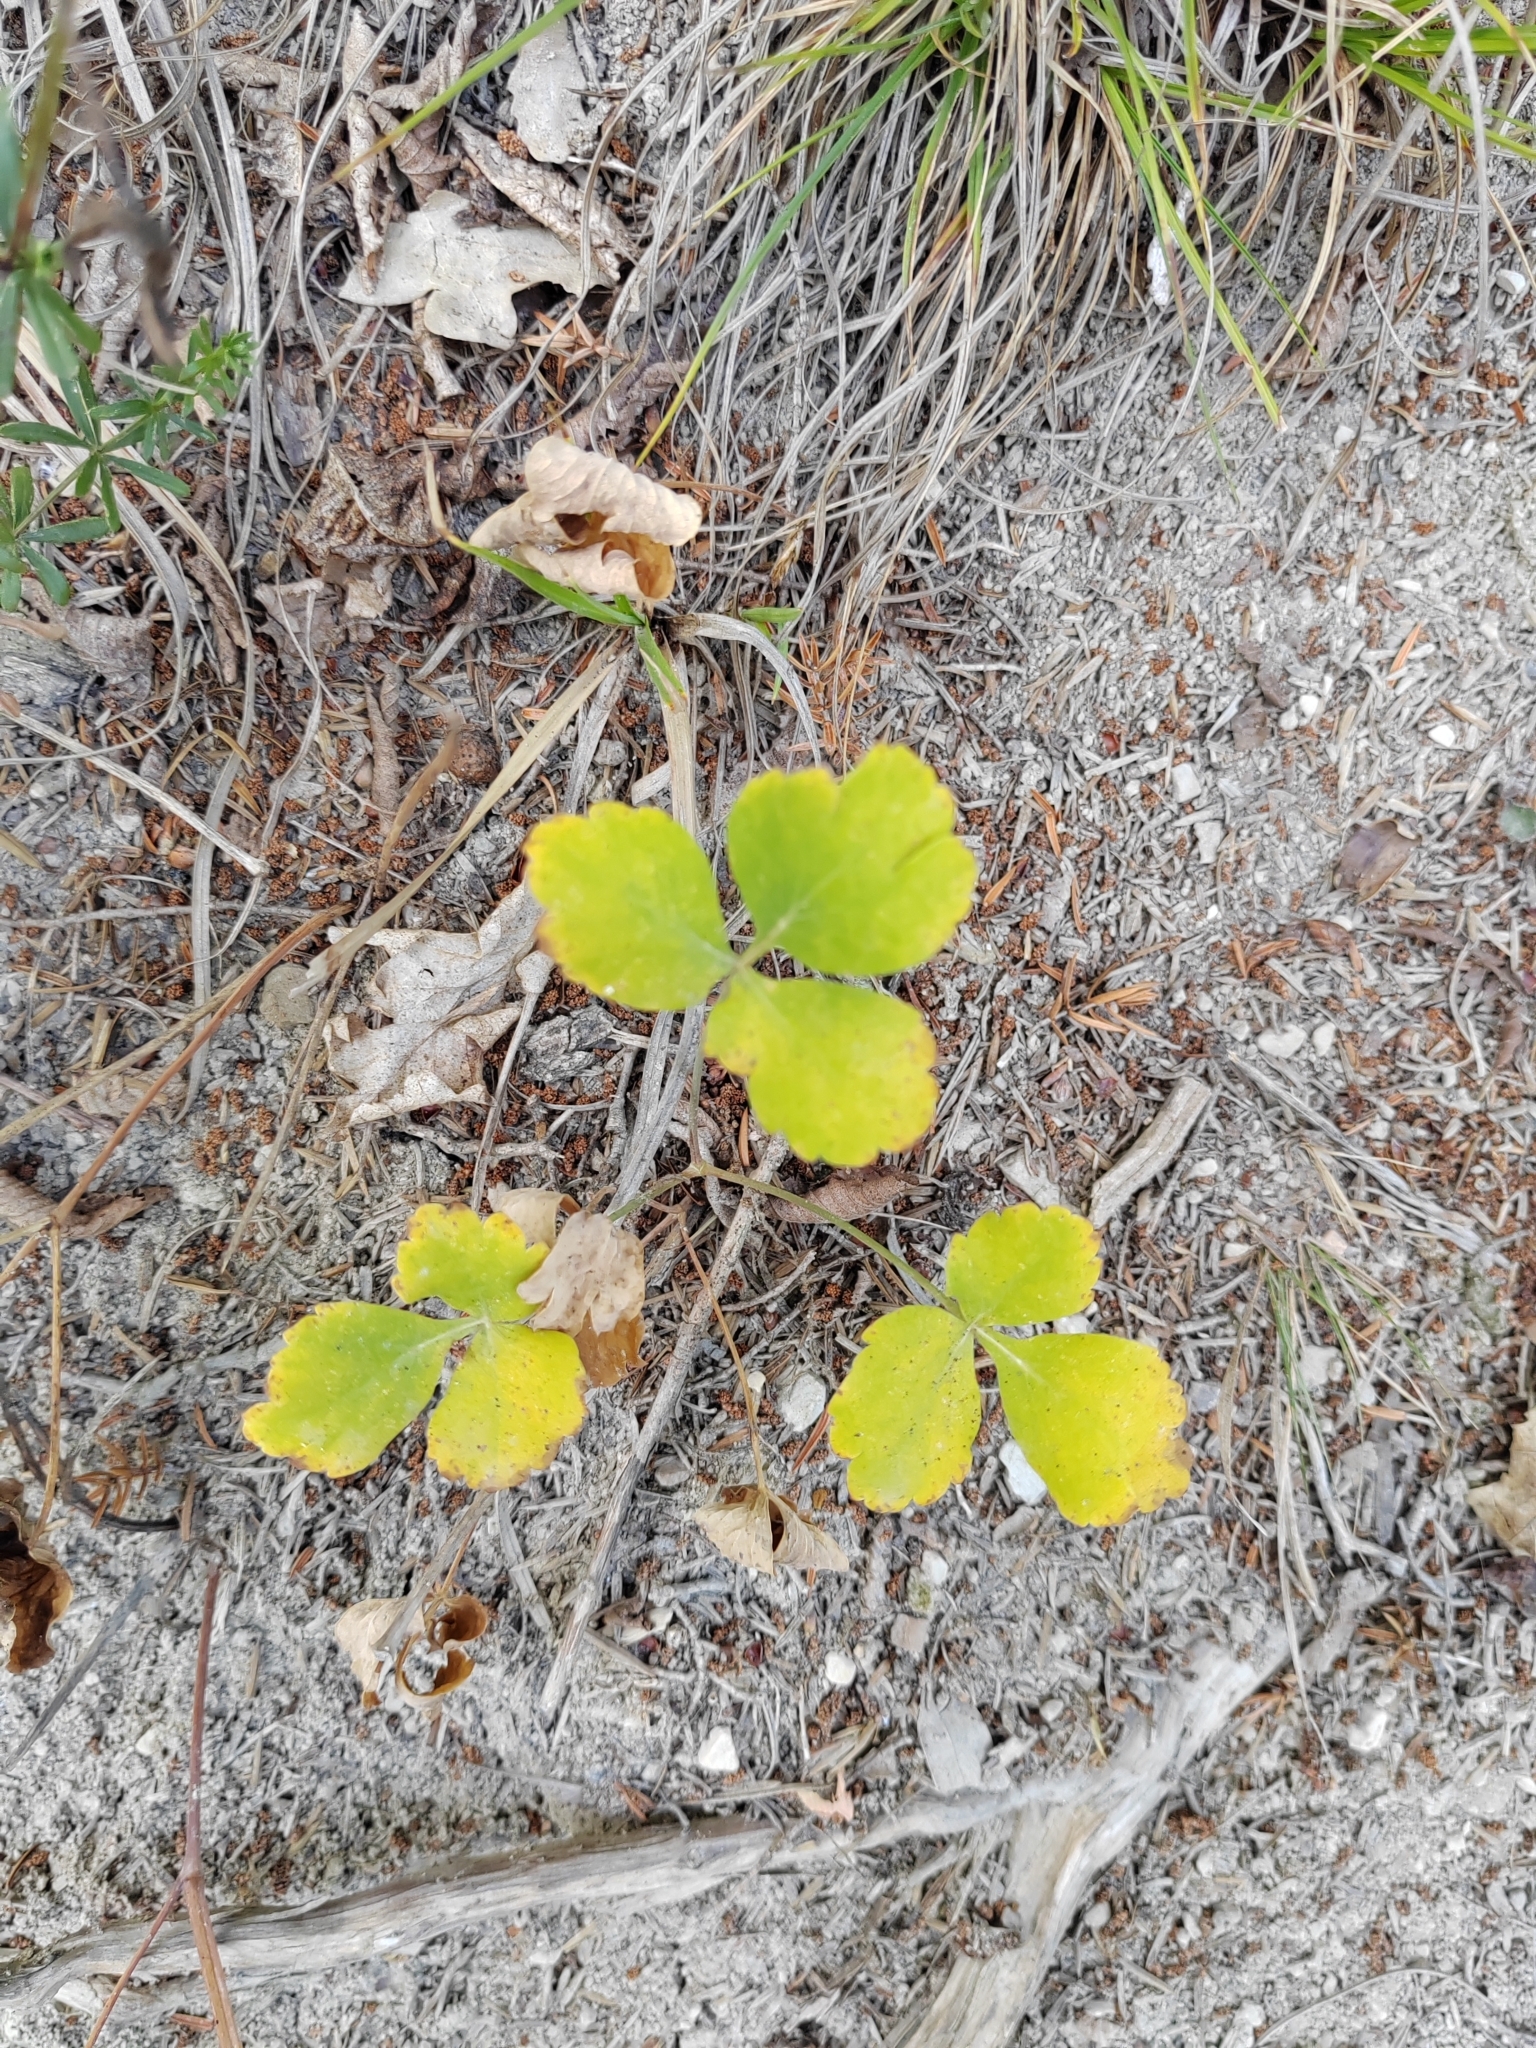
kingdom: Plantae
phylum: Tracheophyta
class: Magnoliopsida
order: Apiales
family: Apiaceae
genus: Laser
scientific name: Laser trilobum
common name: Laser
